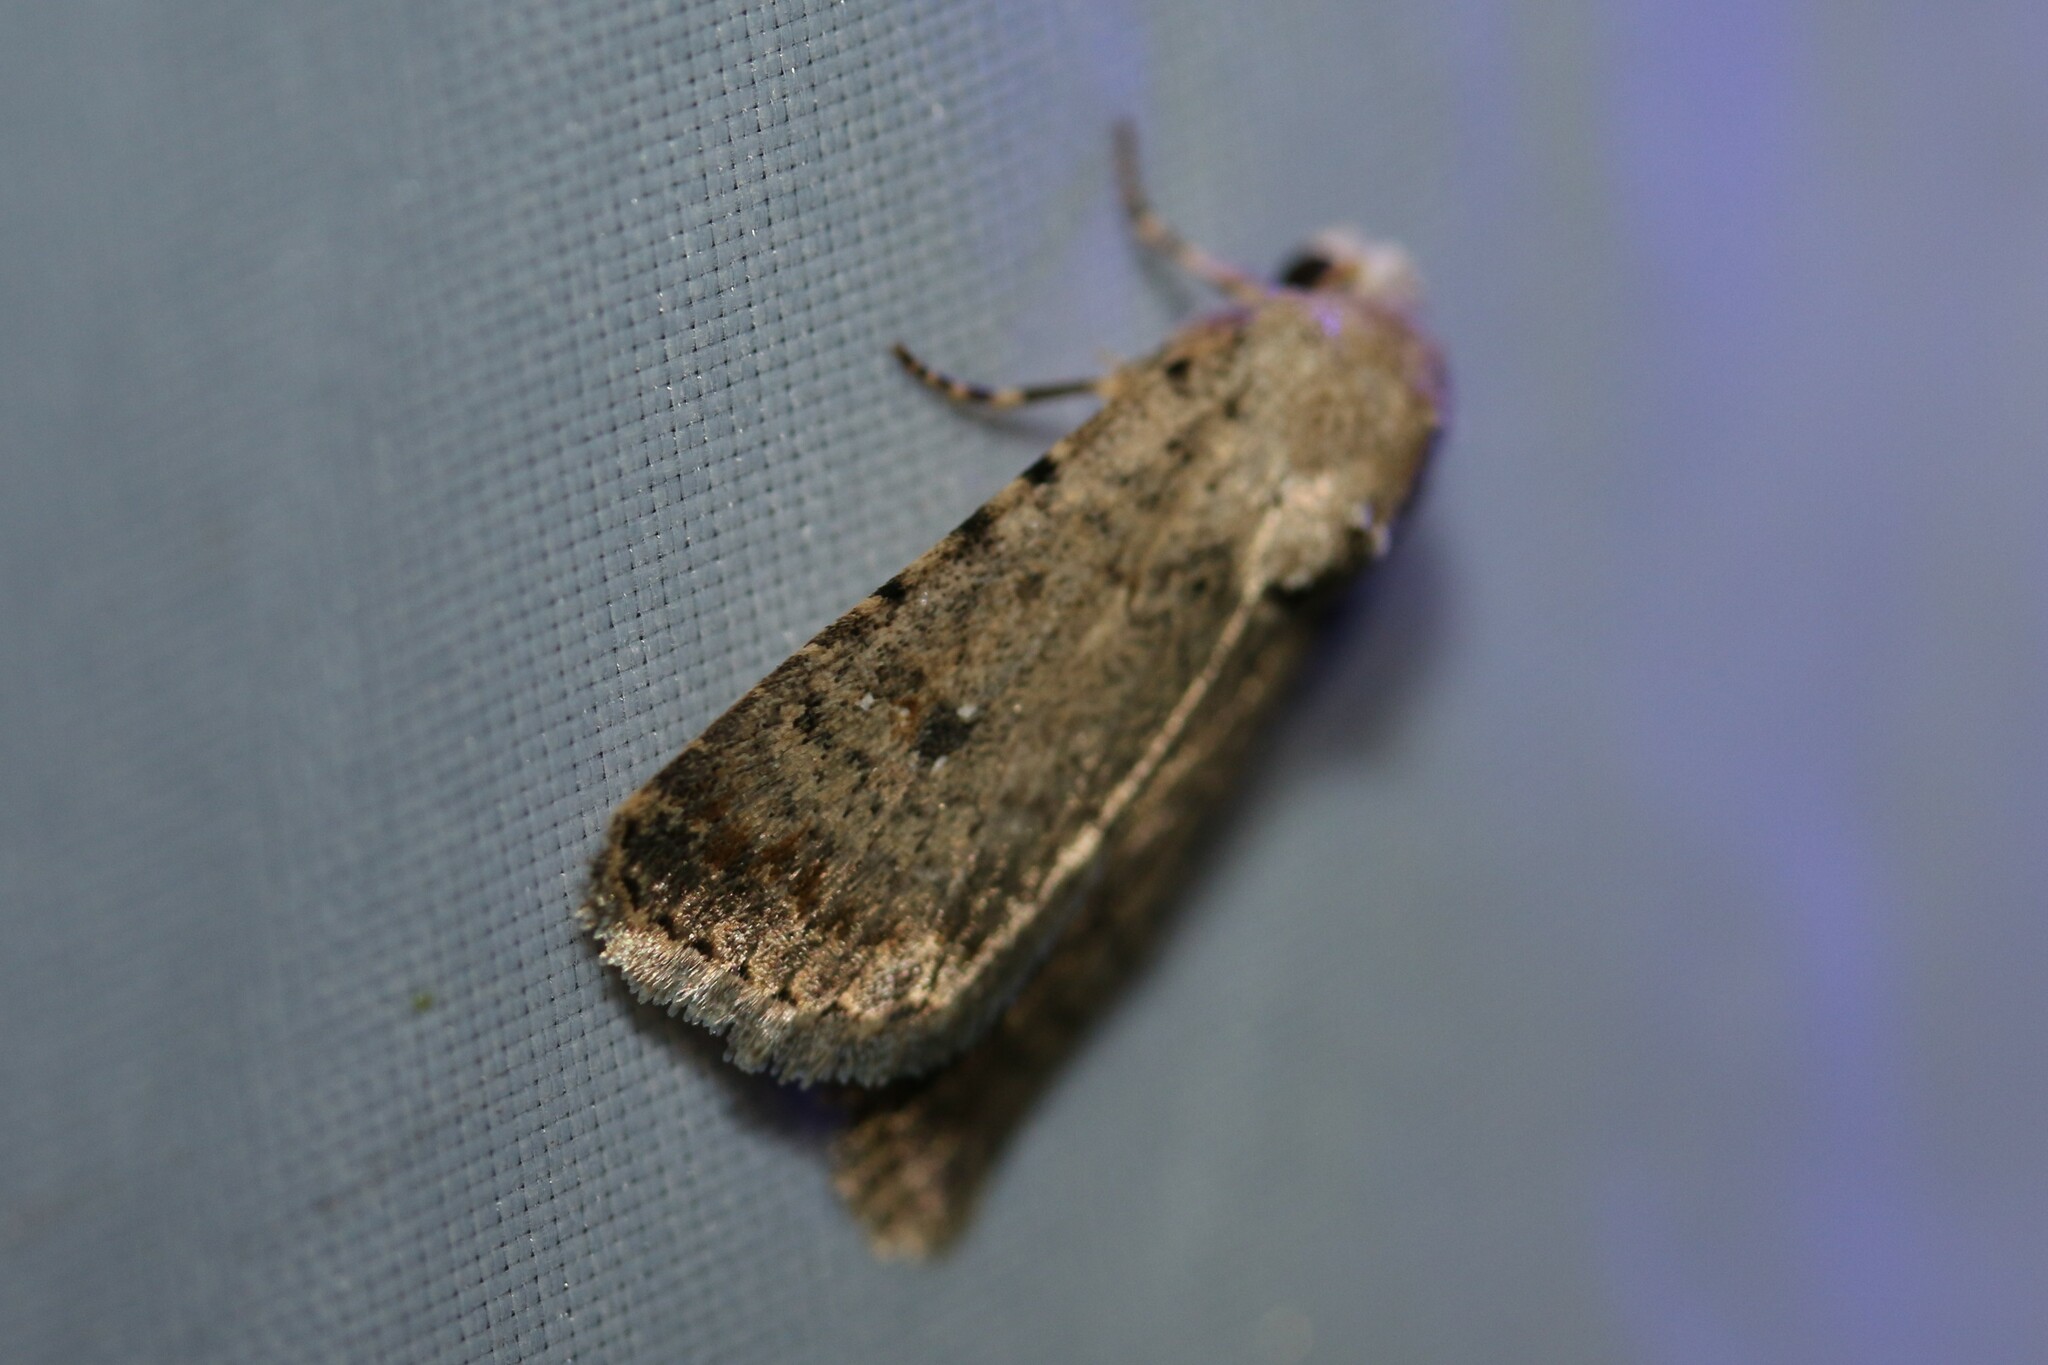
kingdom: Animalia
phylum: Arthropoda
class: Insecta
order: Lepidoptera
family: Noctuidae
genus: Caradrina
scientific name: Caradrina clavipalpis
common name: Pale mottled willow
